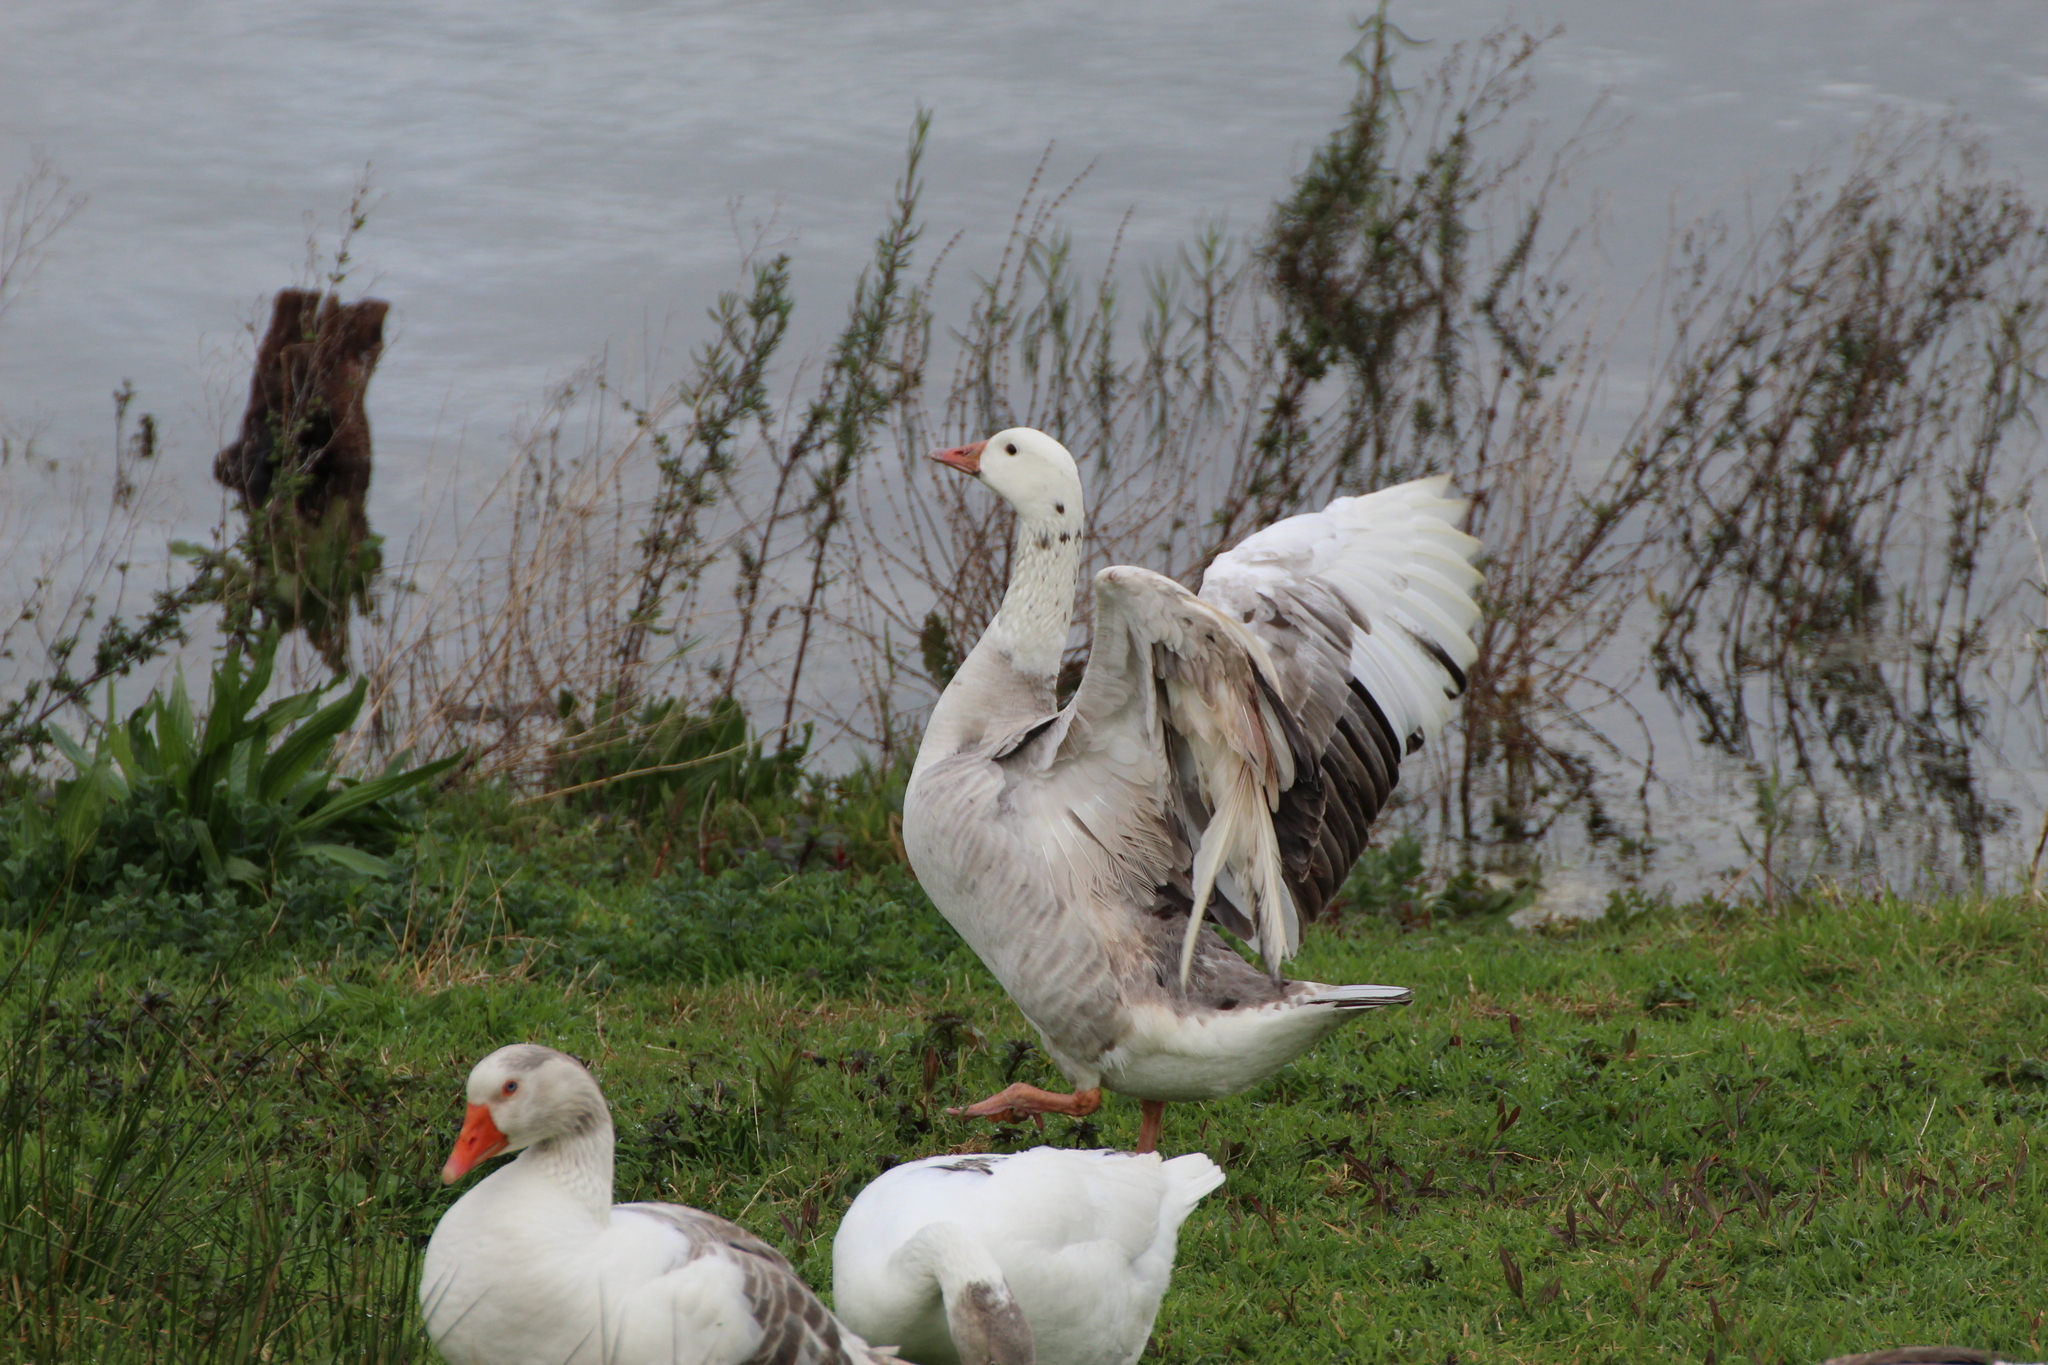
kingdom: Animalia
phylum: Chordata
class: Aves
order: Anseriformes
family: Anatidae
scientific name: Anatidae
